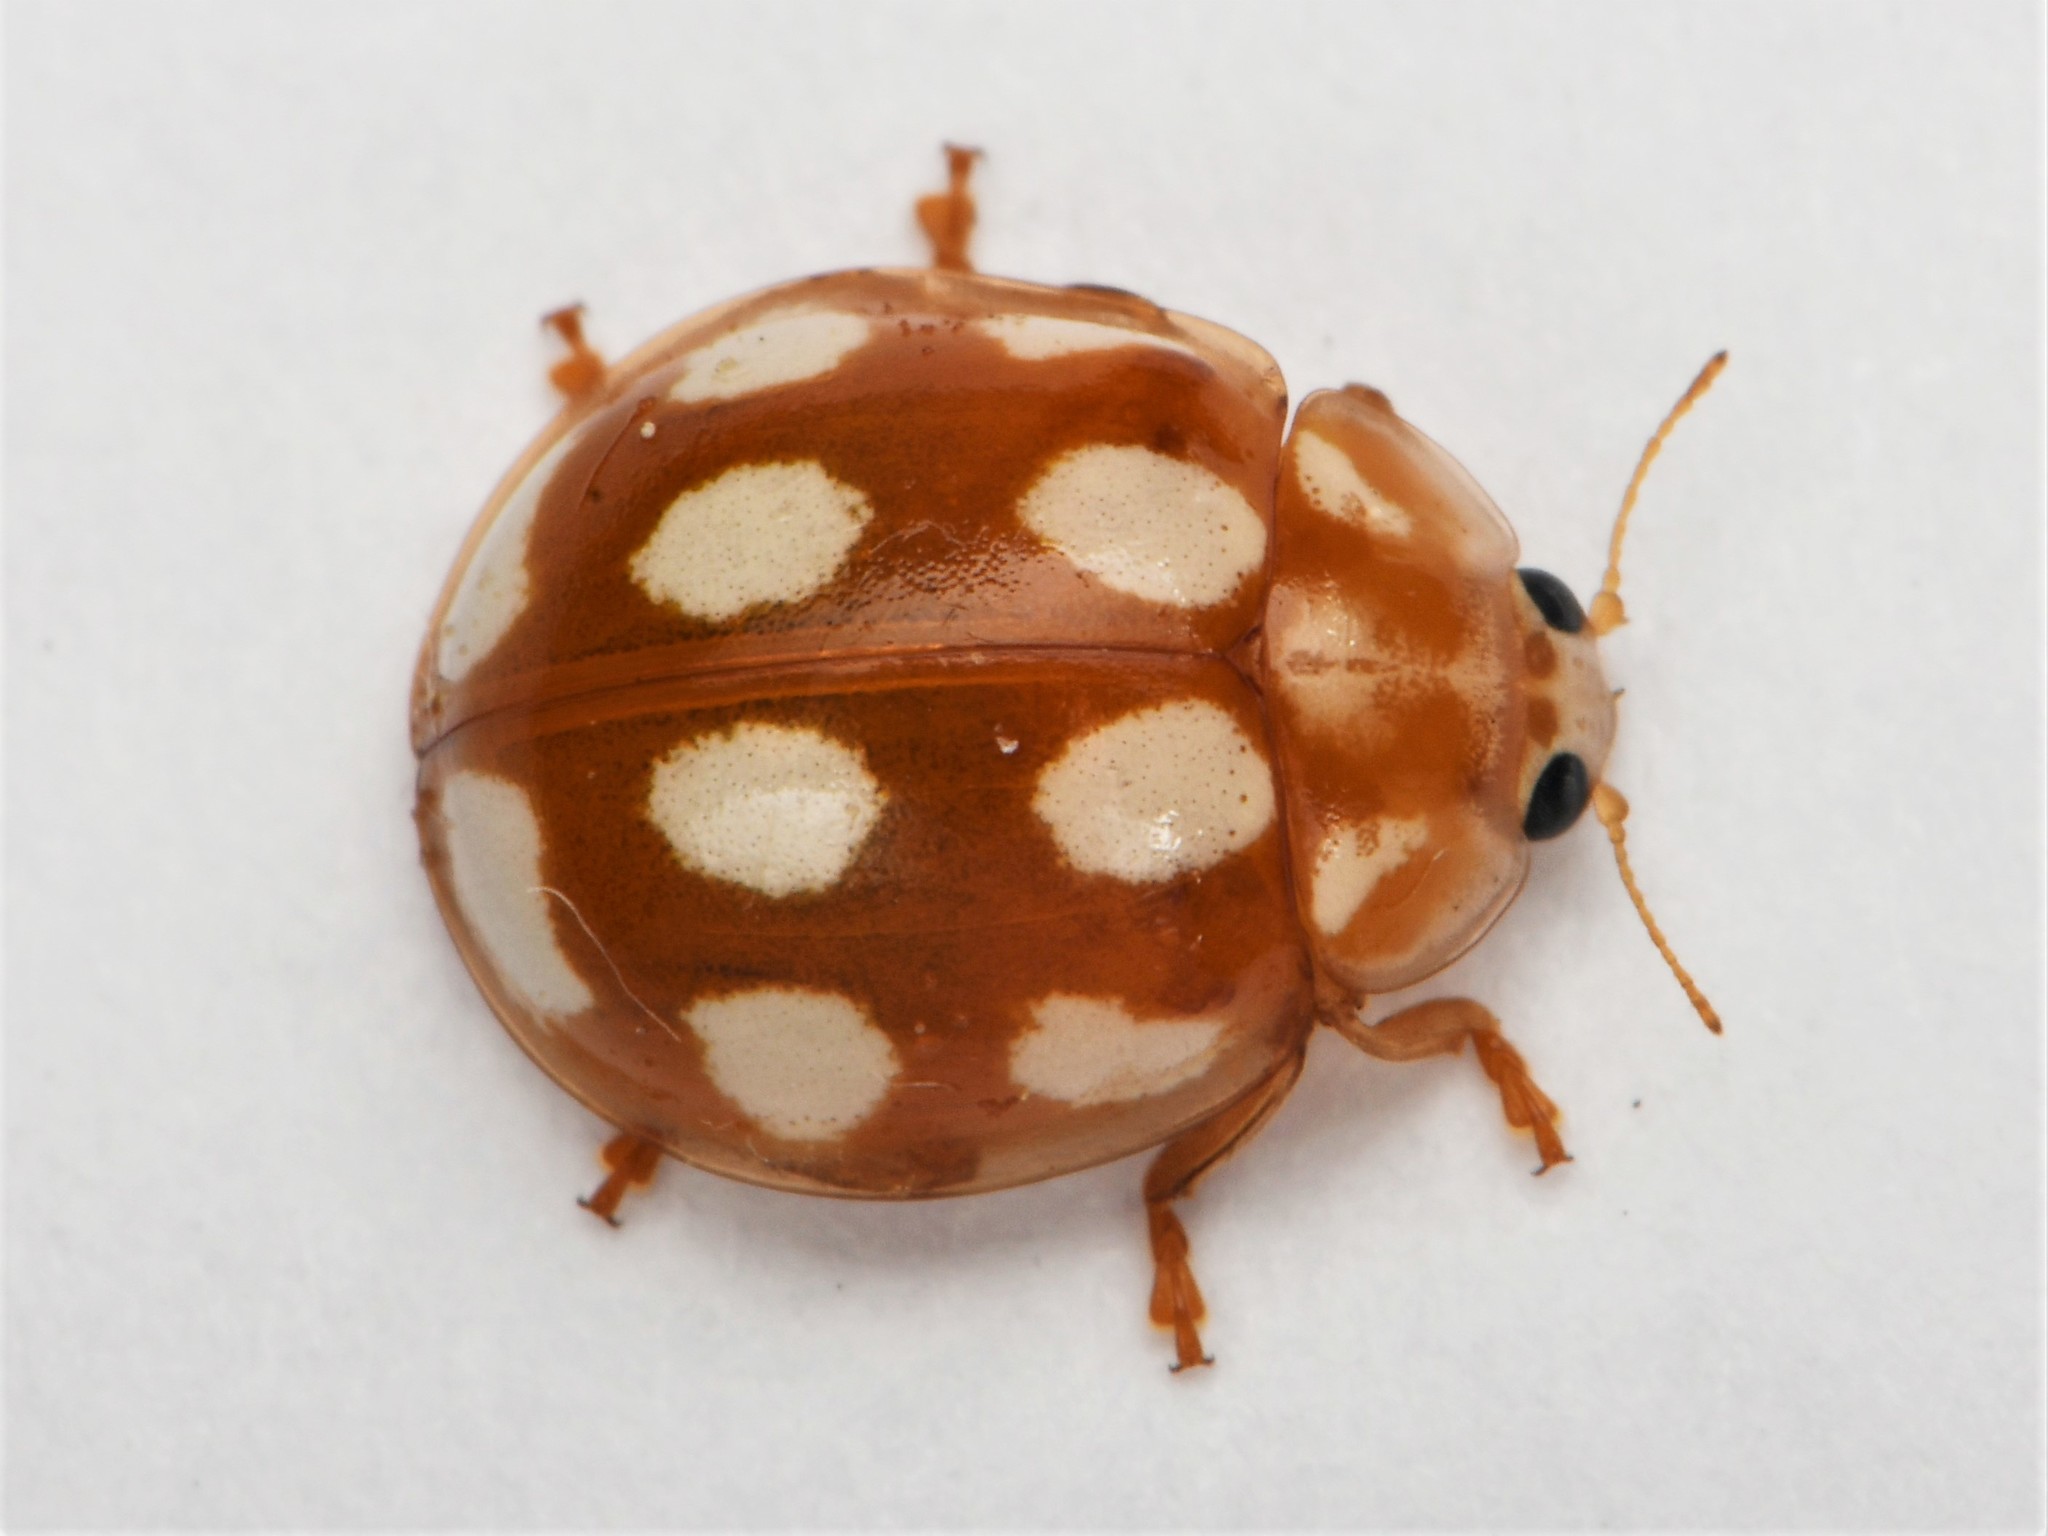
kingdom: Animalia
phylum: Arthropoda
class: Insecta
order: Coleoptera
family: Coccinellidae
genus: Calvia
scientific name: Calvia decemguttata
